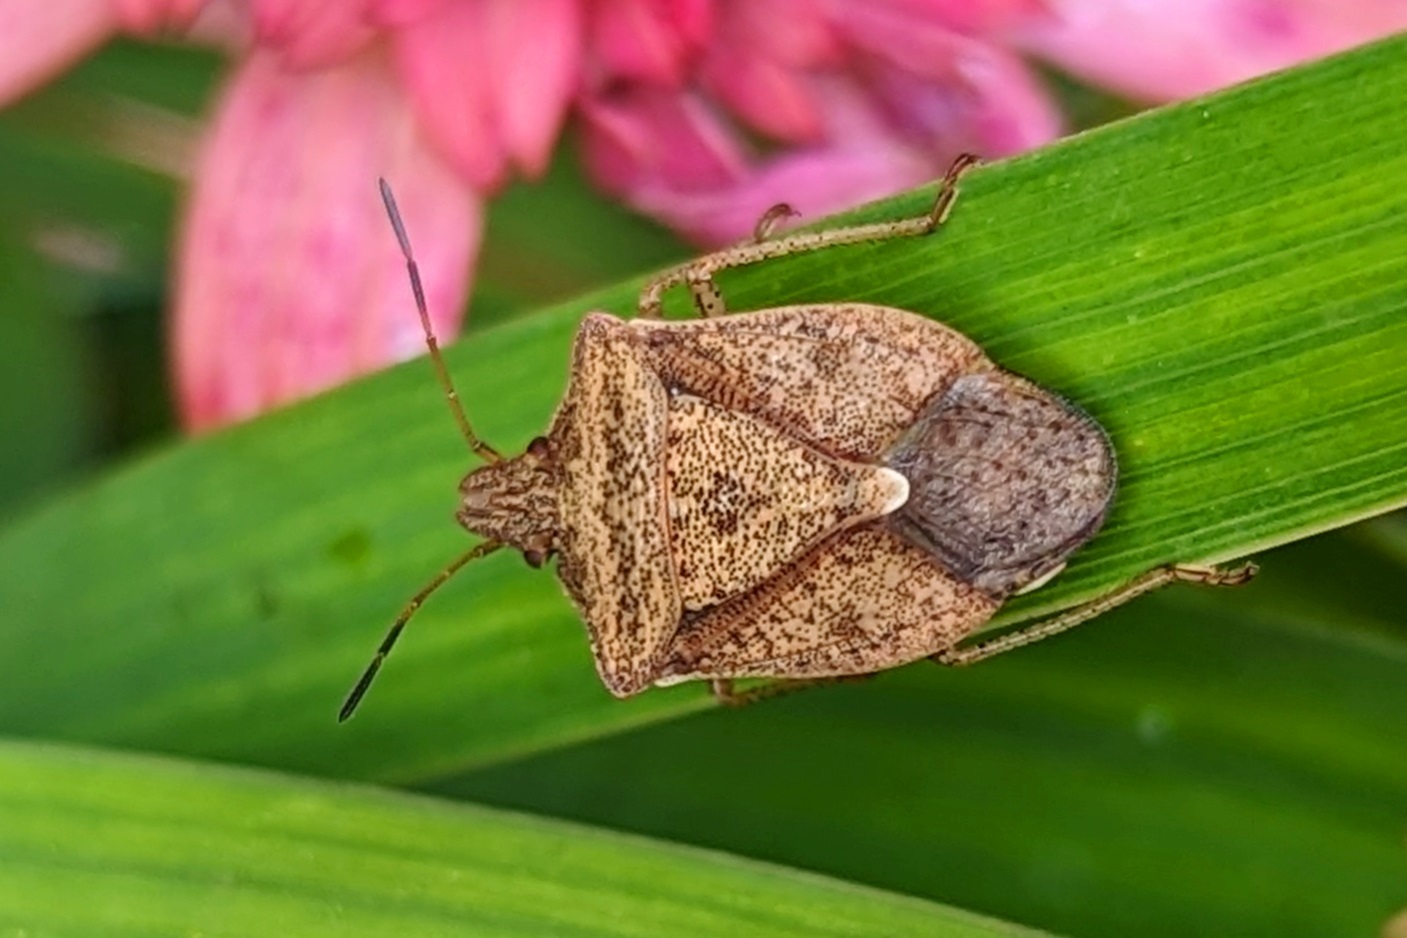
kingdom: Animalia
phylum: Arthropoda
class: Insecta
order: Hemiptera
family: Pentatomidae
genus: Euschistus
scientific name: Euschistus servus
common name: Brown stink bug
